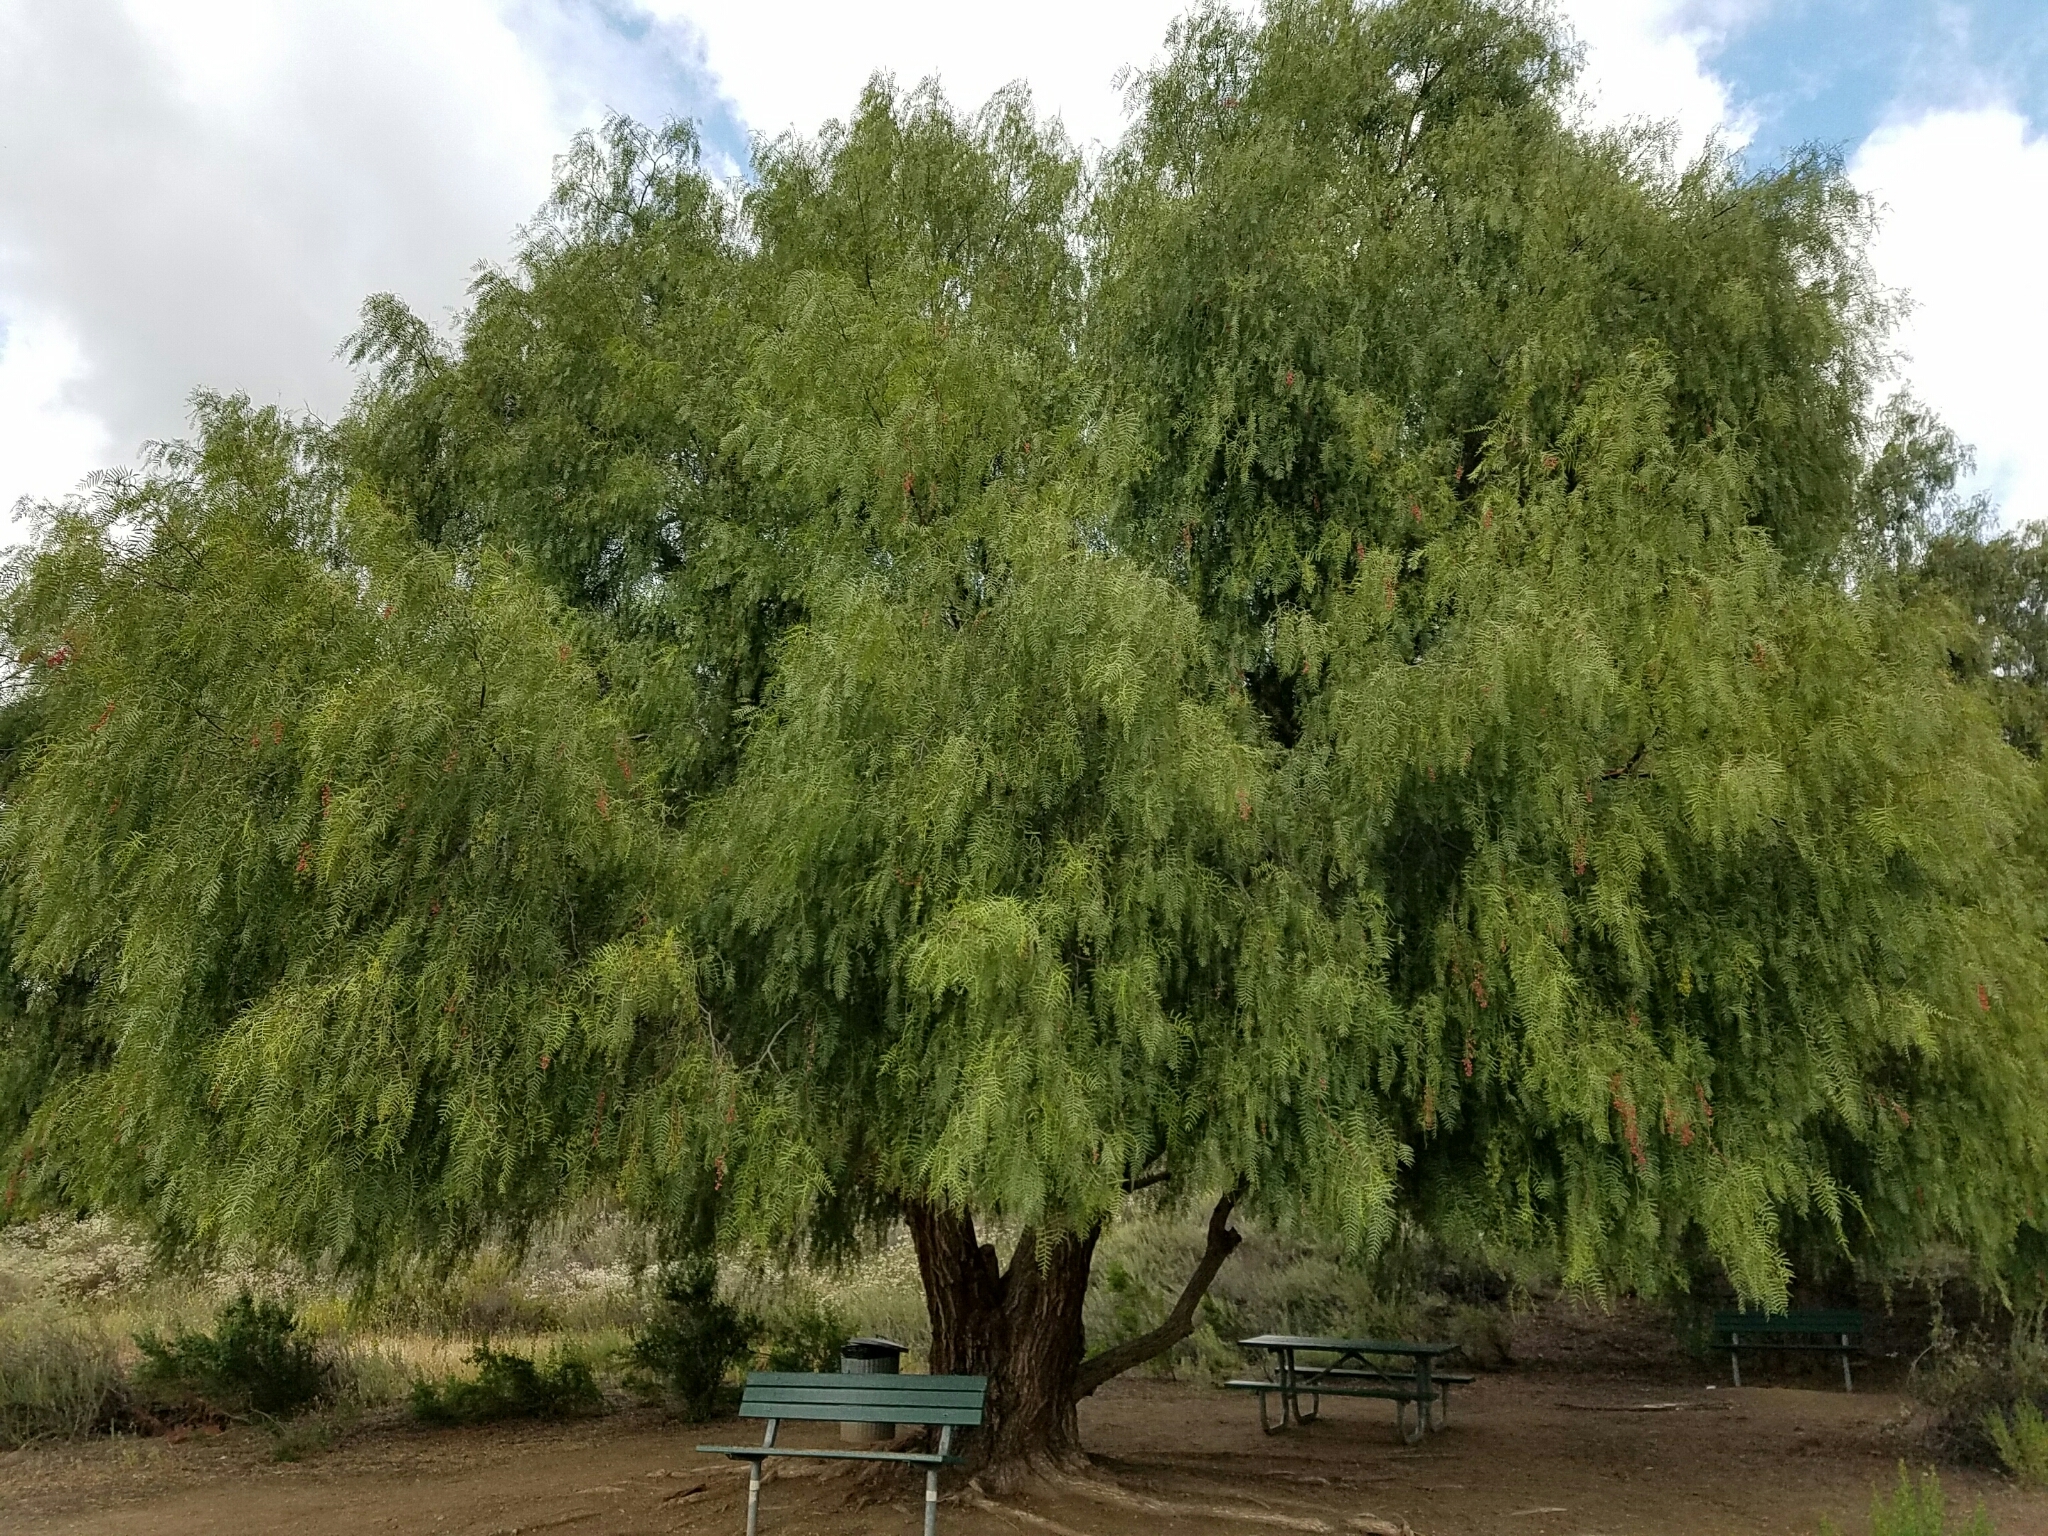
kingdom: Plantae
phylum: Tracheophyta
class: Magnoliopsida
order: Sapindales
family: Anacardiaceae
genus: Schinus
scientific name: Schinus molle
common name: Peruvian peppertree
